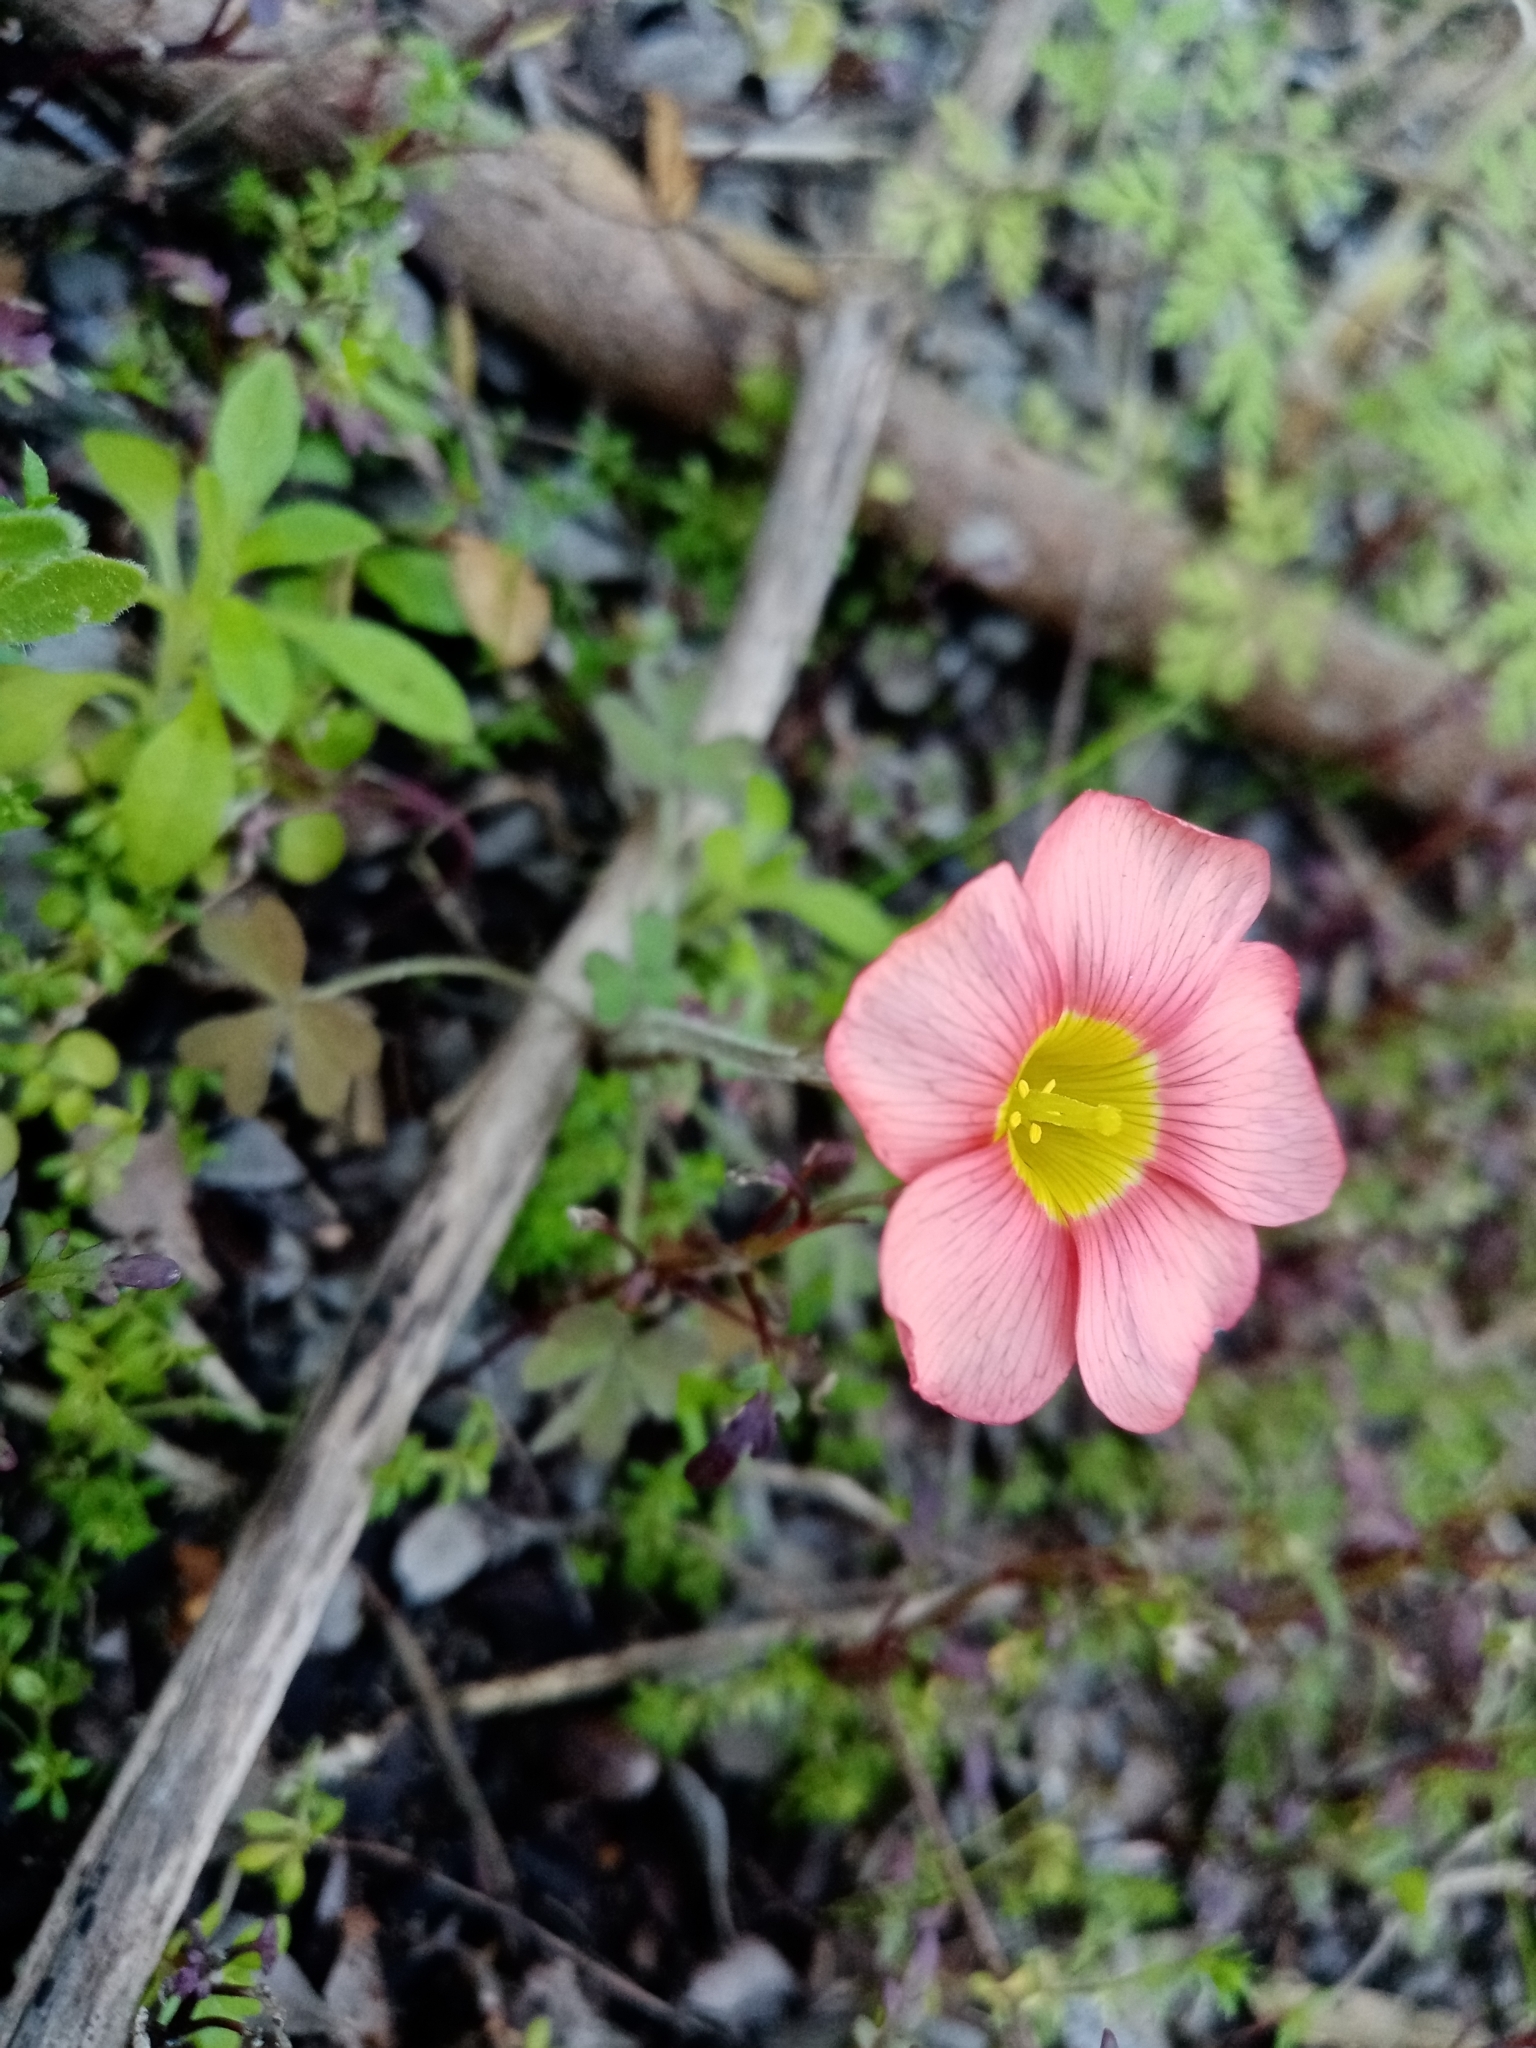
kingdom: Plantae
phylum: Tracheophyta
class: Magnoliopsida
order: Oxalidales
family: Oxalidaceae
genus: Oxalis
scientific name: Oxalis obtusa
